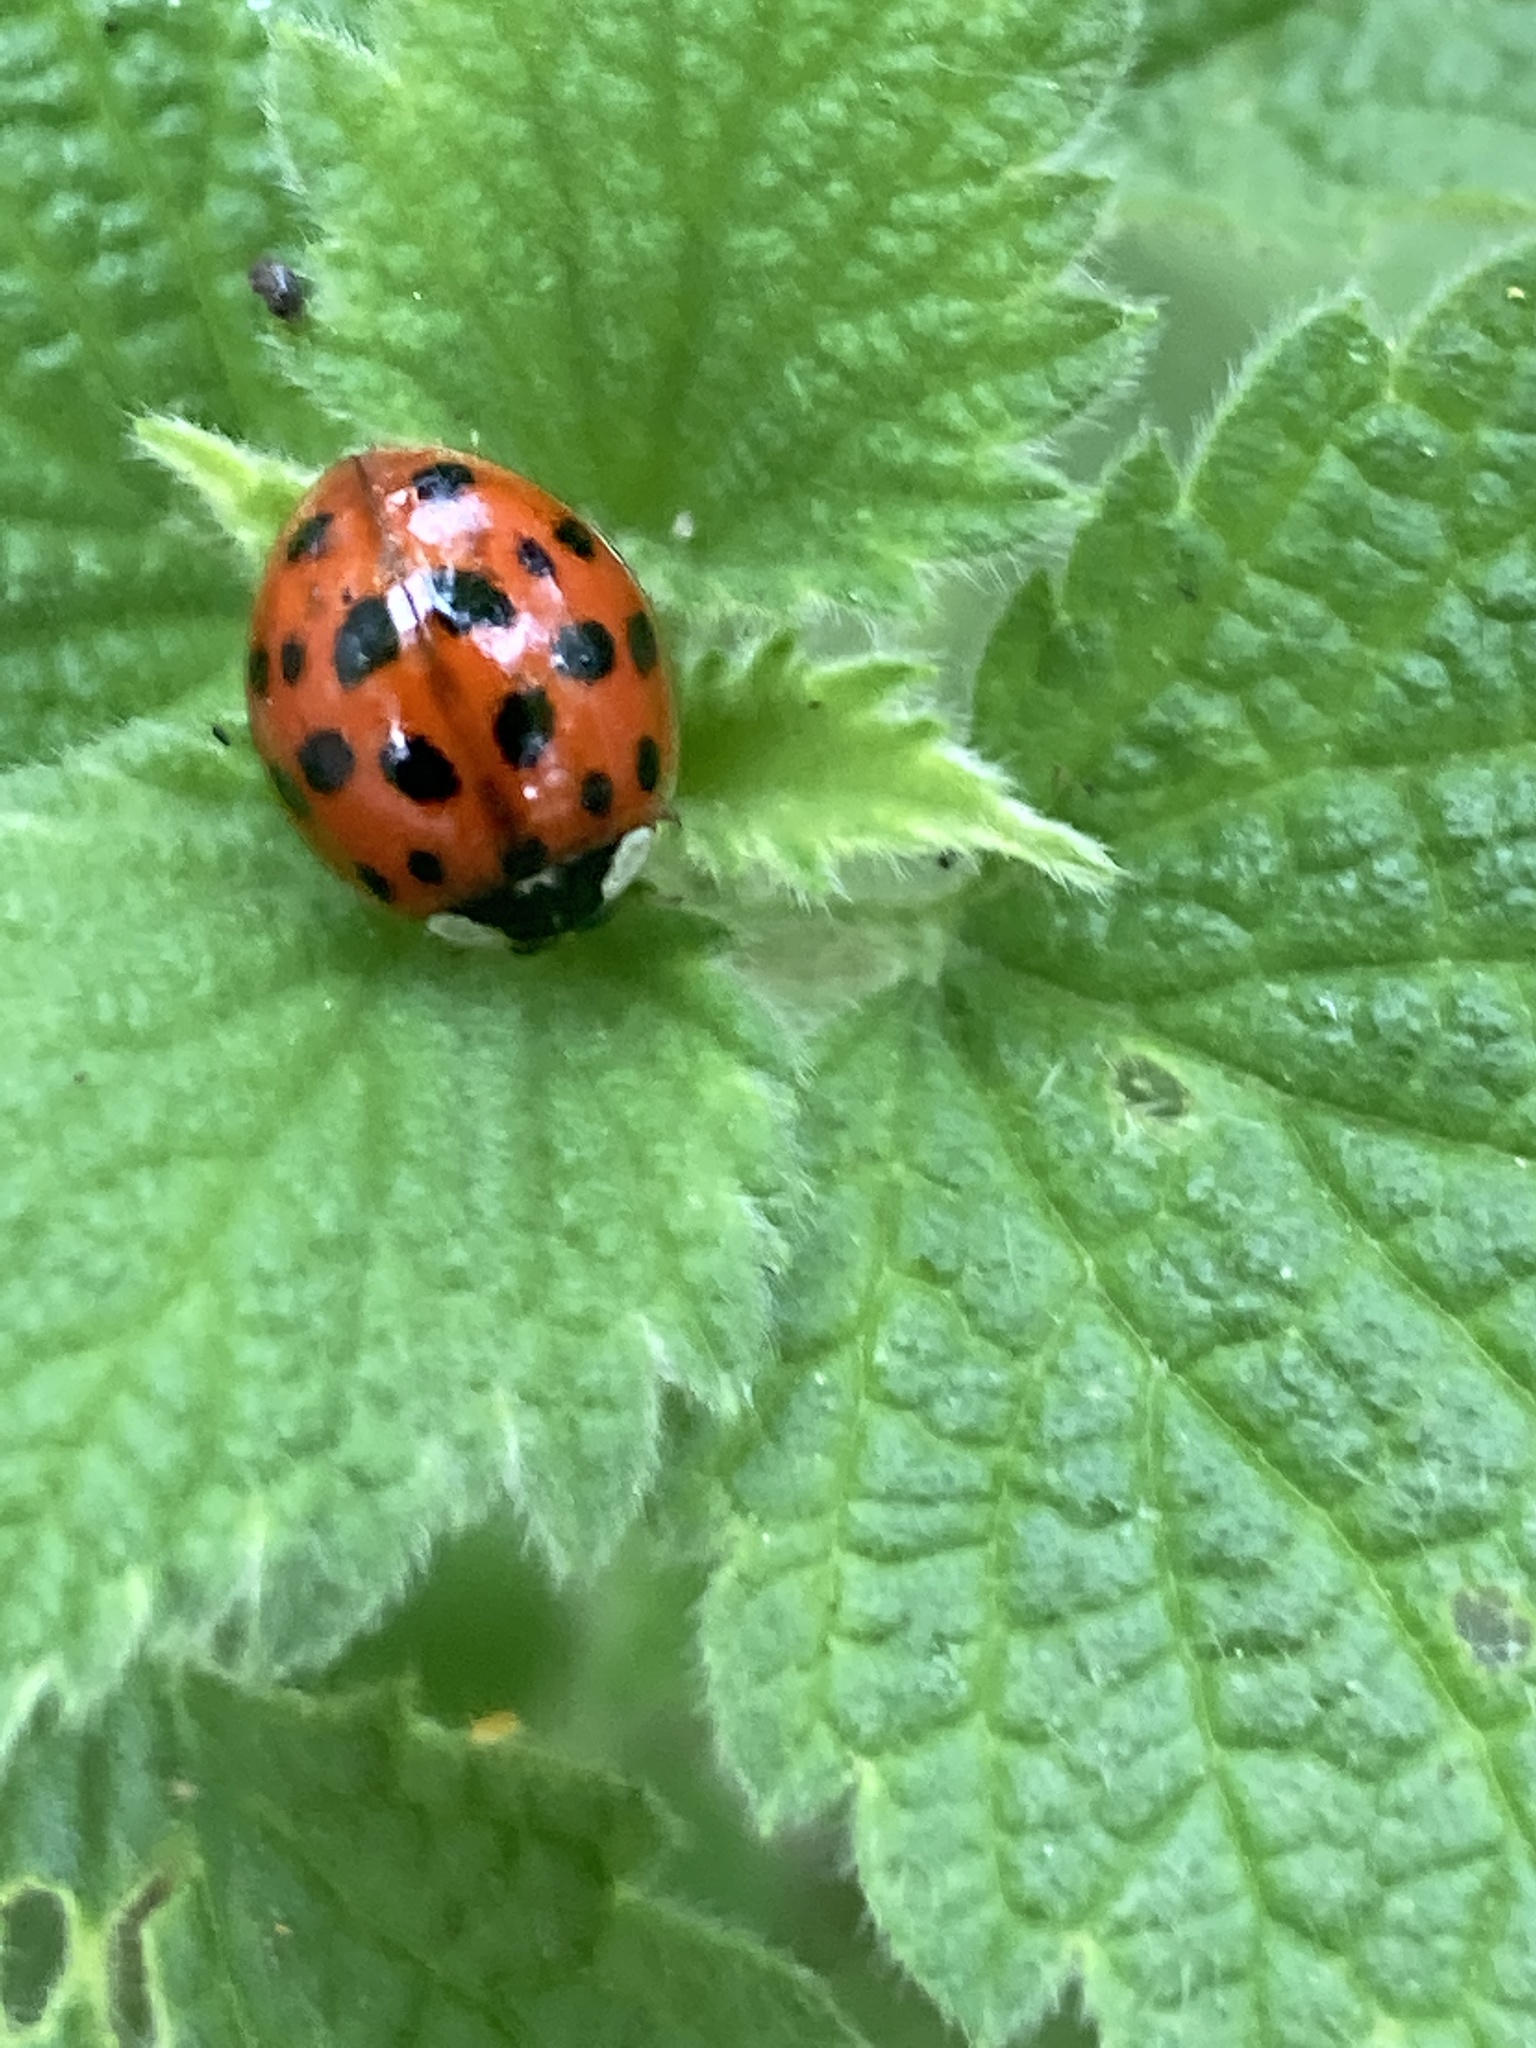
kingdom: Animalia
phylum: Arthropoda
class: Insecta
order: Coleoptera
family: Coccinellidae
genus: Harmonia
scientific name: Harmonia axyridis
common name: Harlequin ladybird
